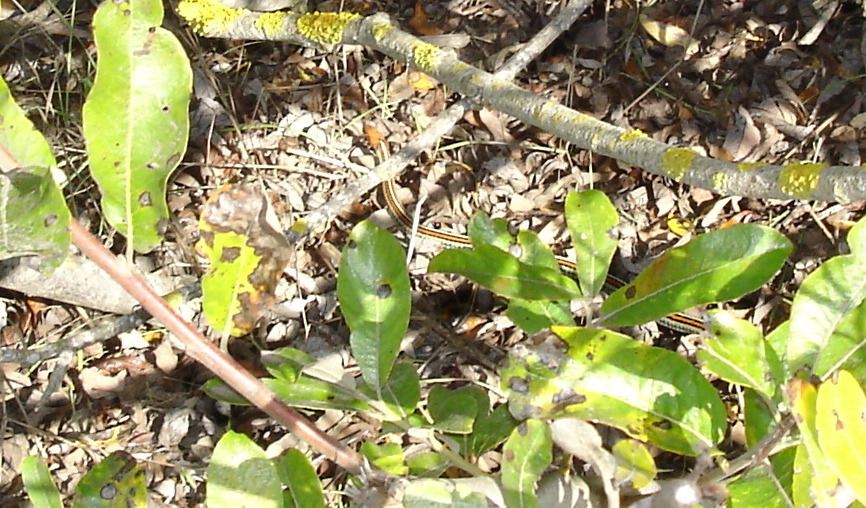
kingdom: Animalia
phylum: Chordata
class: Squamata
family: Colubridae
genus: Thamnophis
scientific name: Thamnophis sirtalis
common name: Common garter snake
